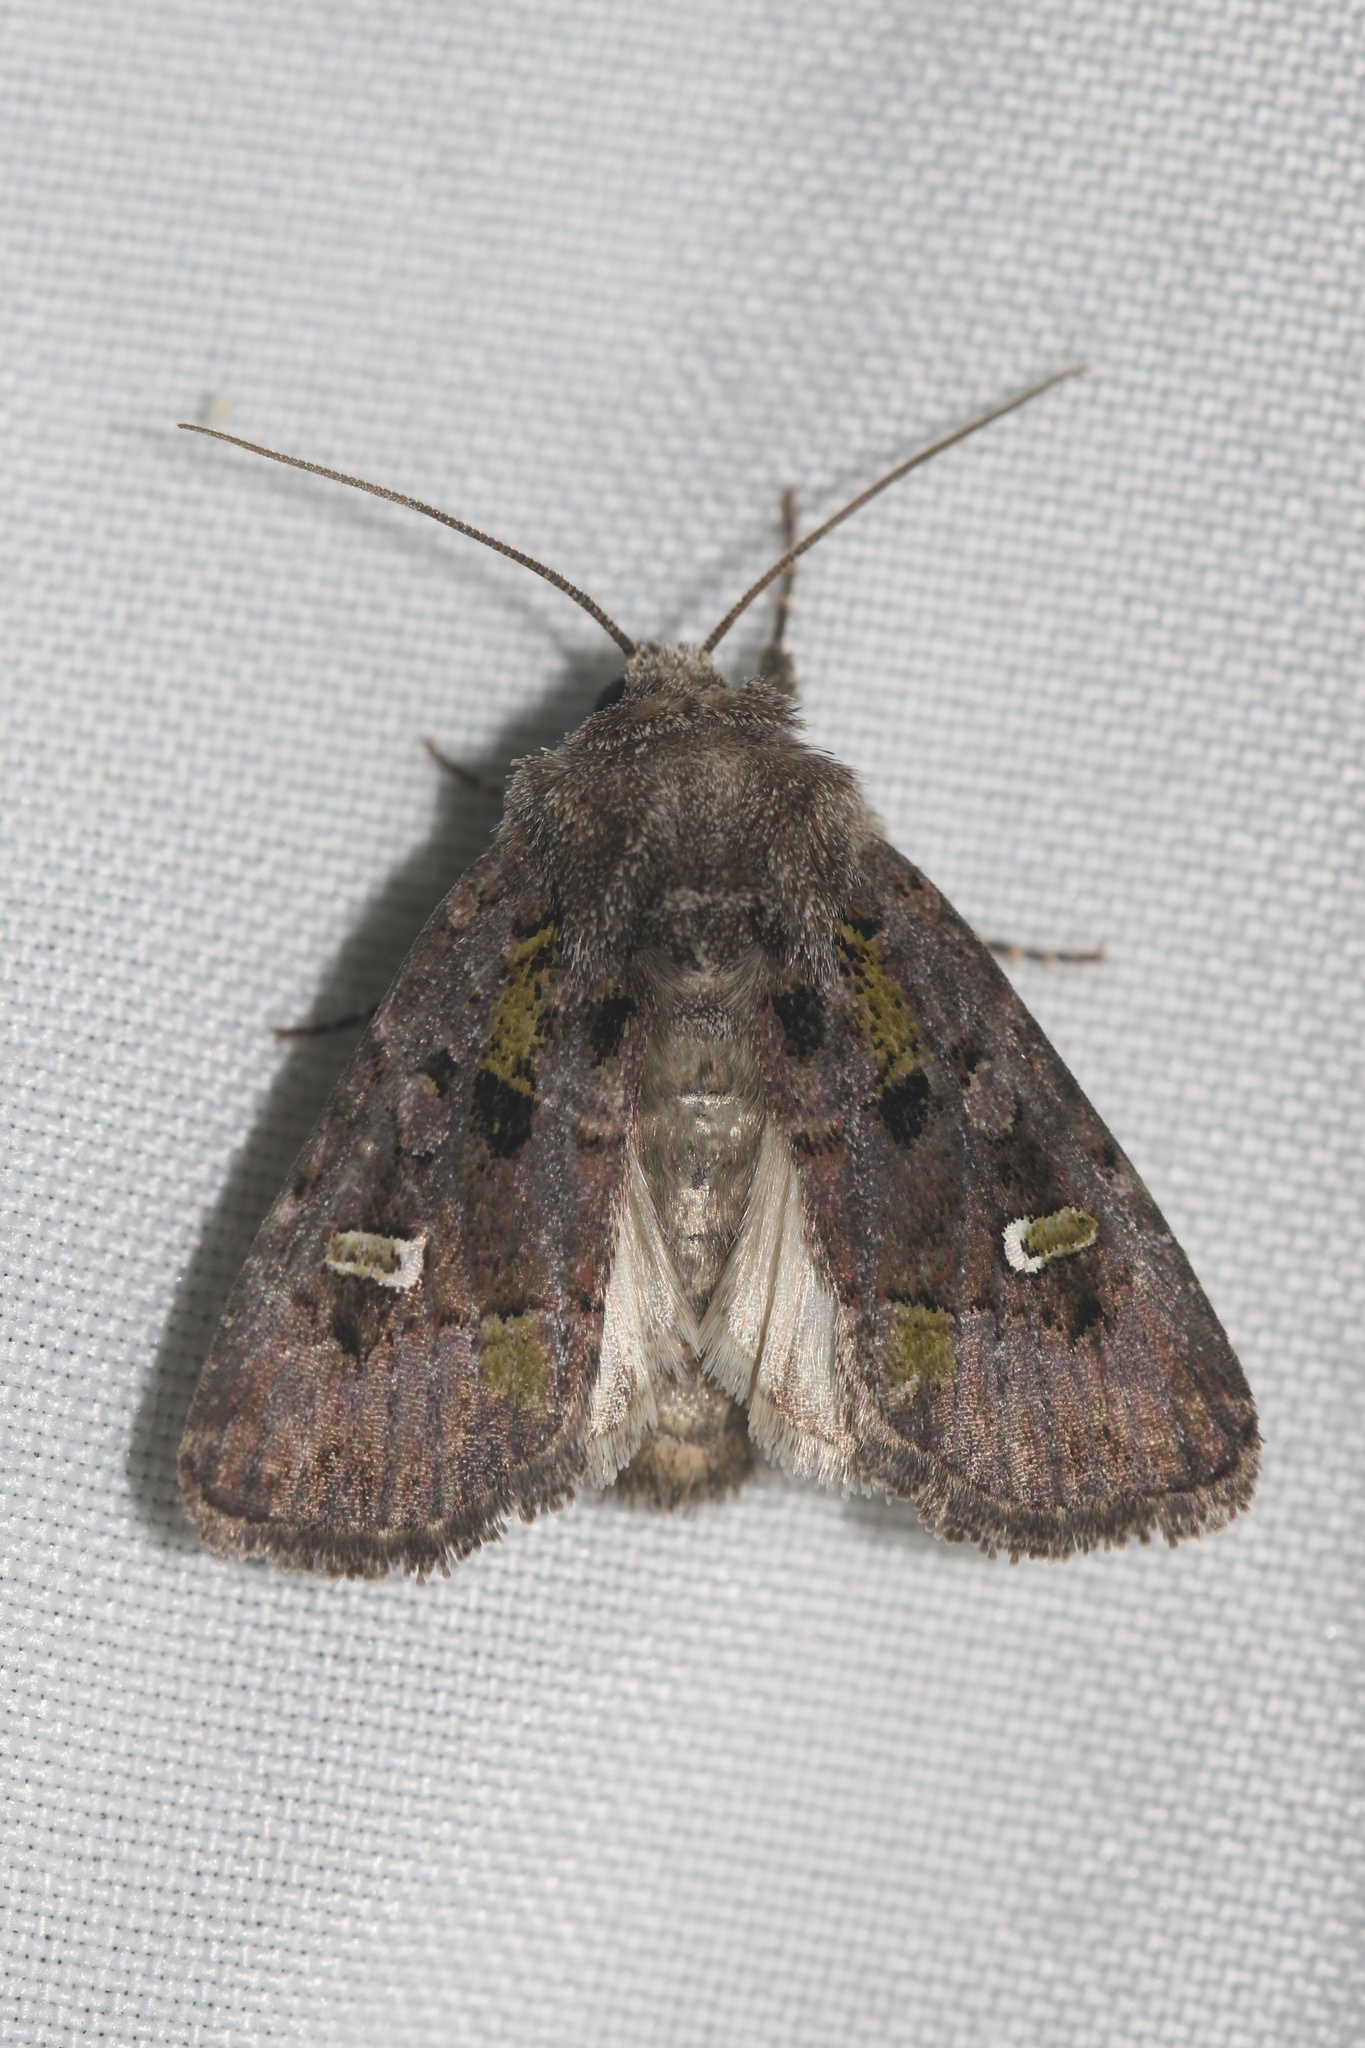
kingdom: Animalia
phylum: Arthropoda
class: Insecta
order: Lepidoptera
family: Noctuidae
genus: Lacinipolia
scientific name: Lacinipolia renigera
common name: Kidney-spotted minor
